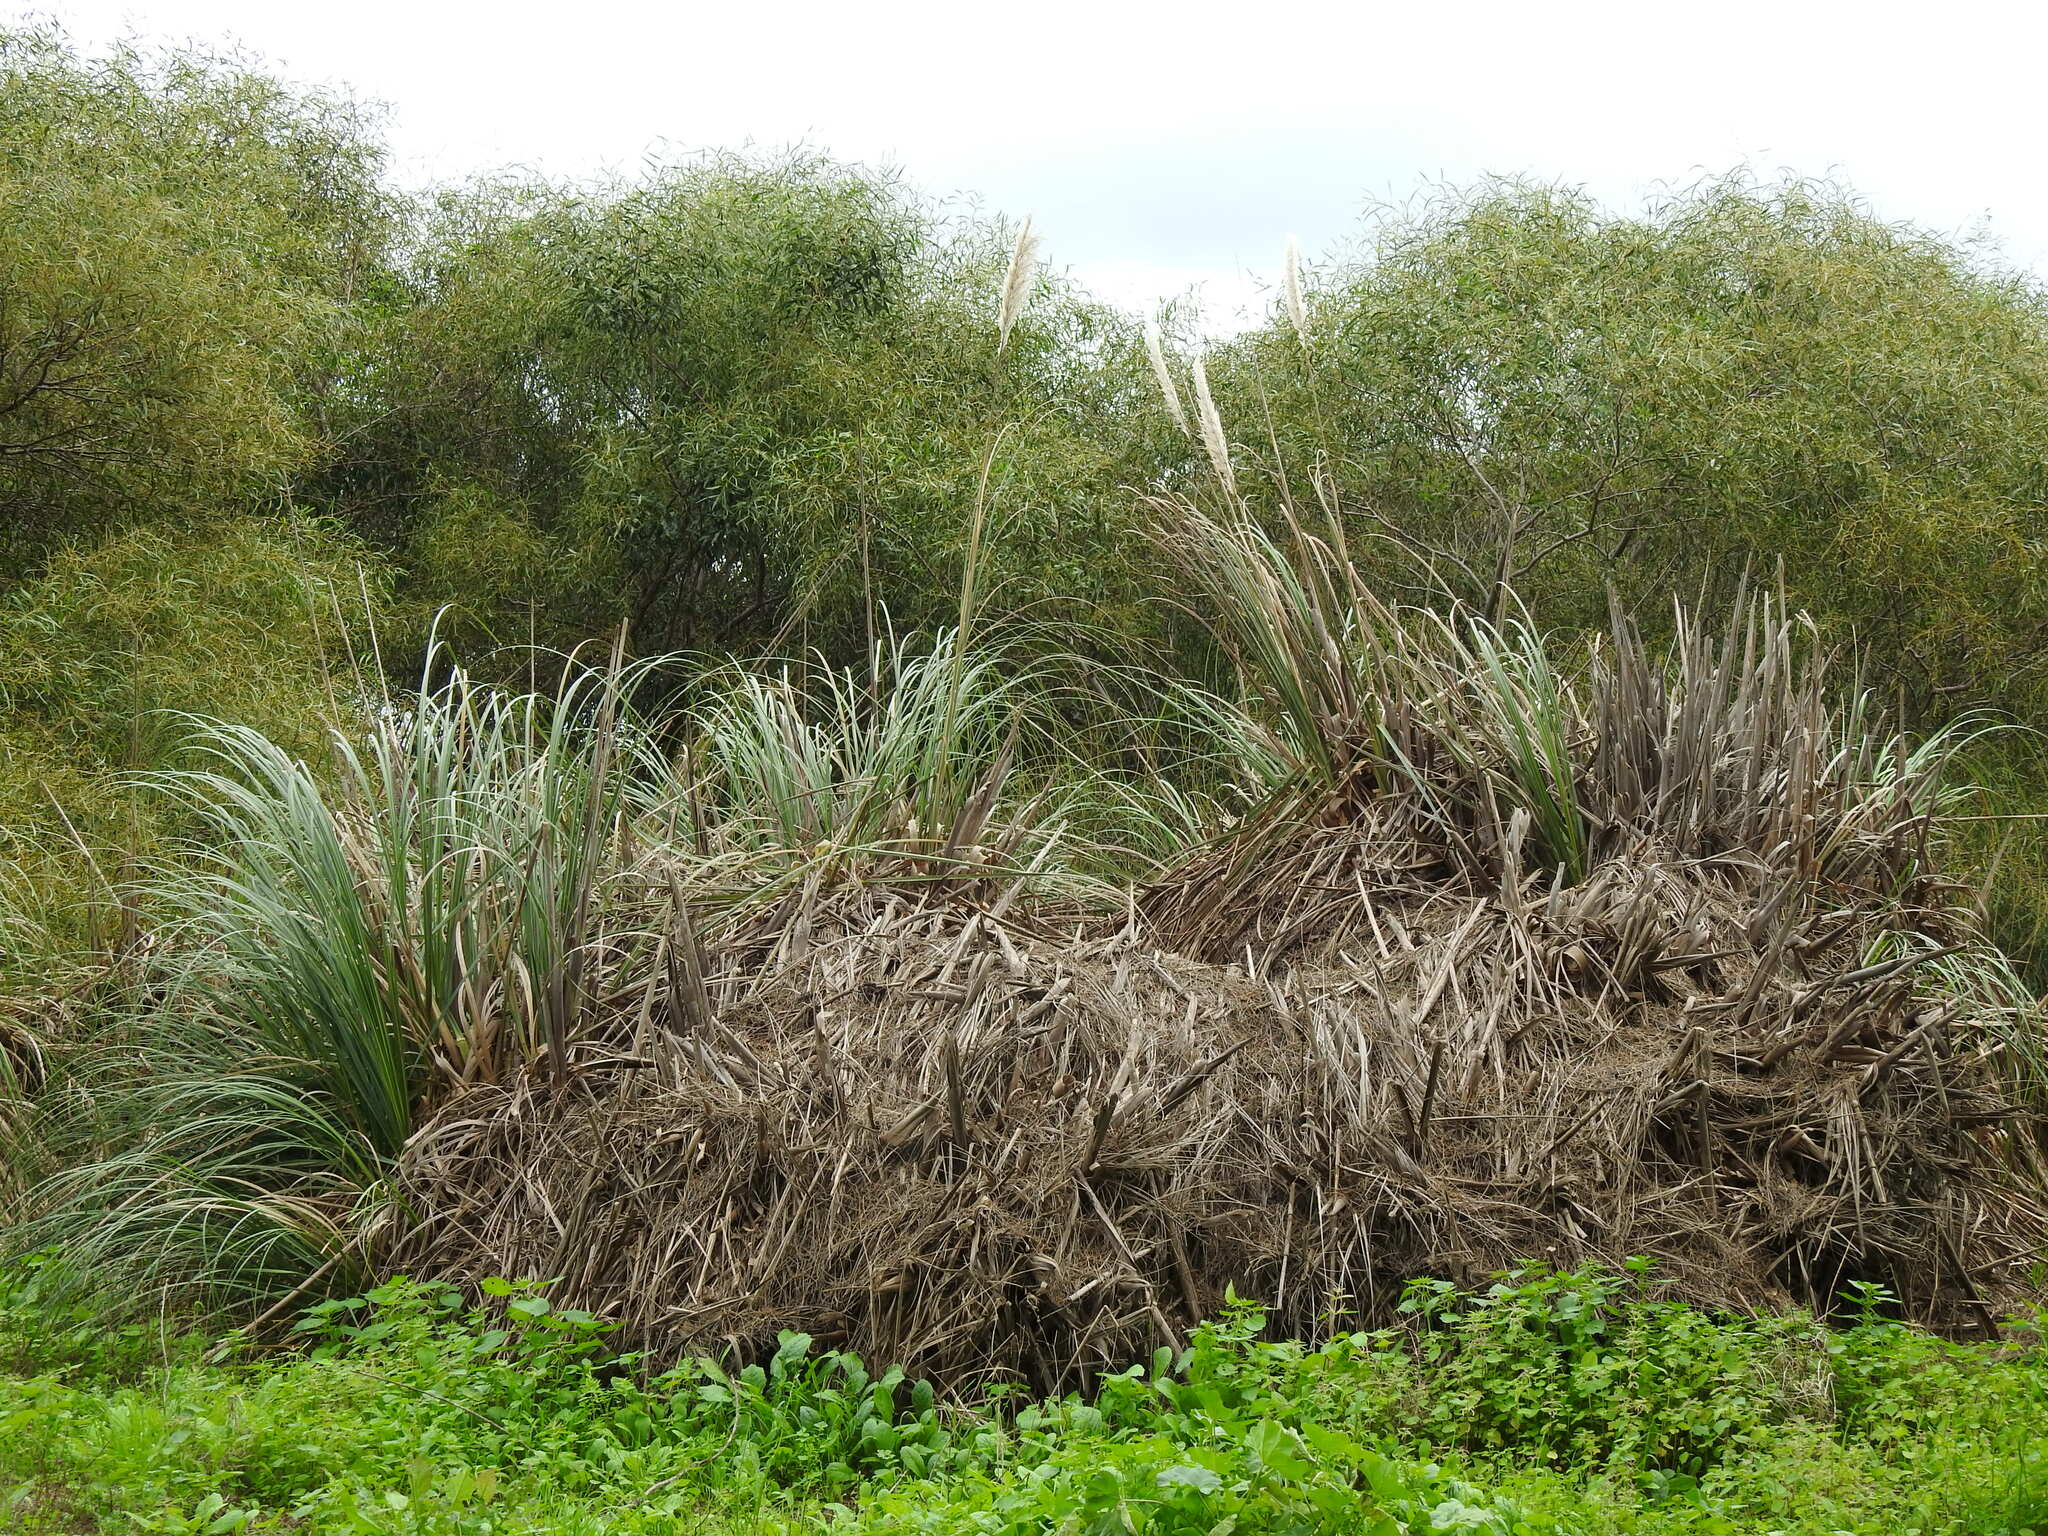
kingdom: Plantae
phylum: Tracheophyta
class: Liliopsida
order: Poales
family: Poaceae
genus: Cortaderia
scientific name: Cortaderia selloana
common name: Uruguayan pampas grass
